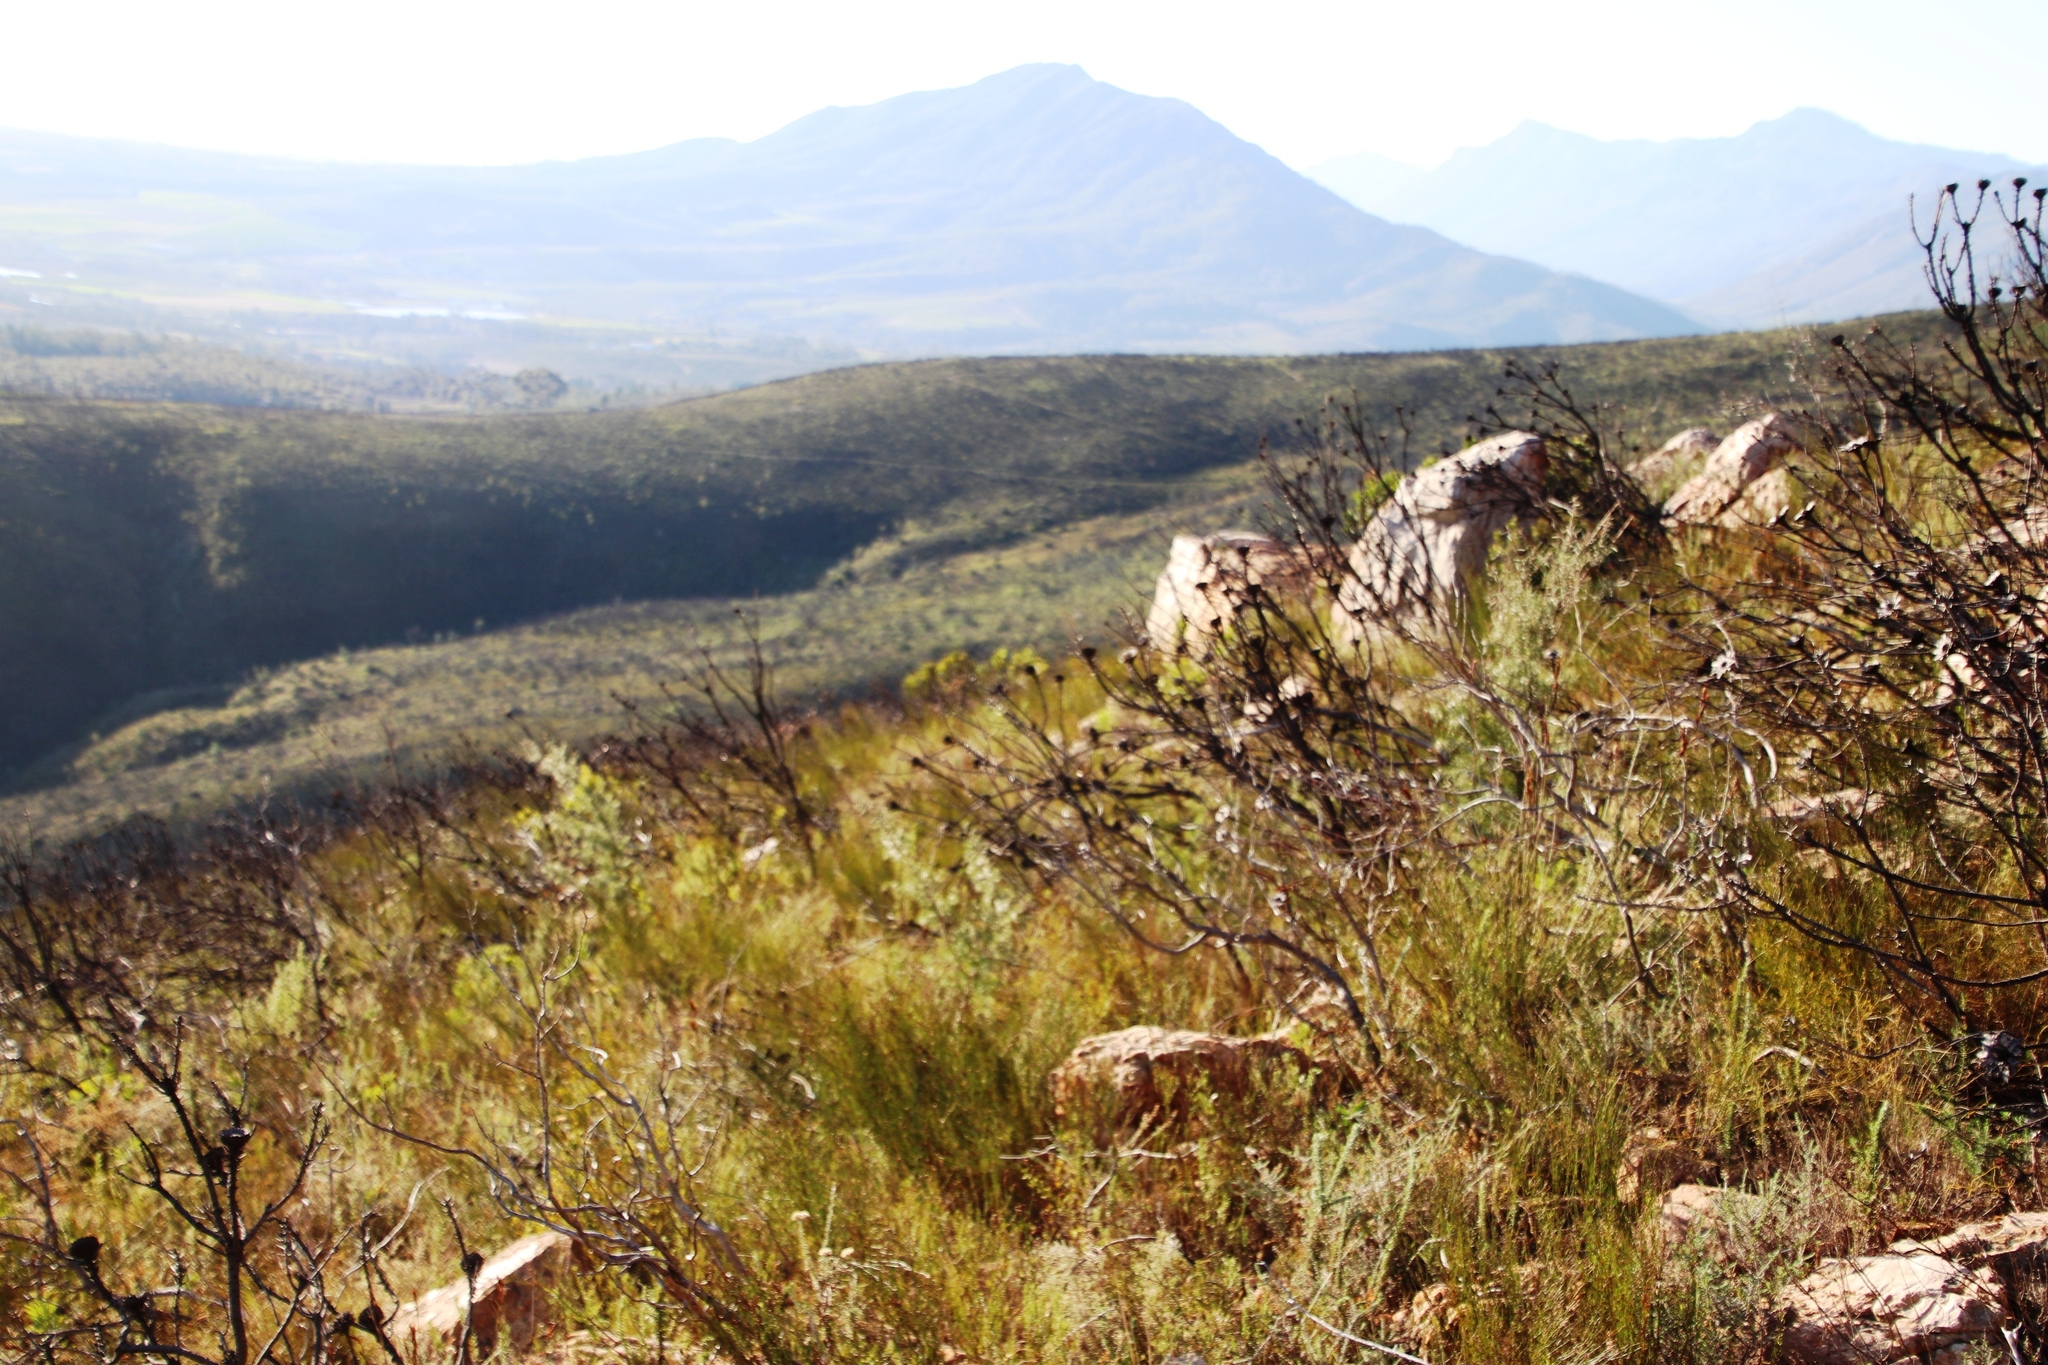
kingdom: Plantae
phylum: Tracheophyta
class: Magnoliopsida
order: Proteales
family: Proteaceae
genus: Hakea
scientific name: Hakea sericea
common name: Needle bush
